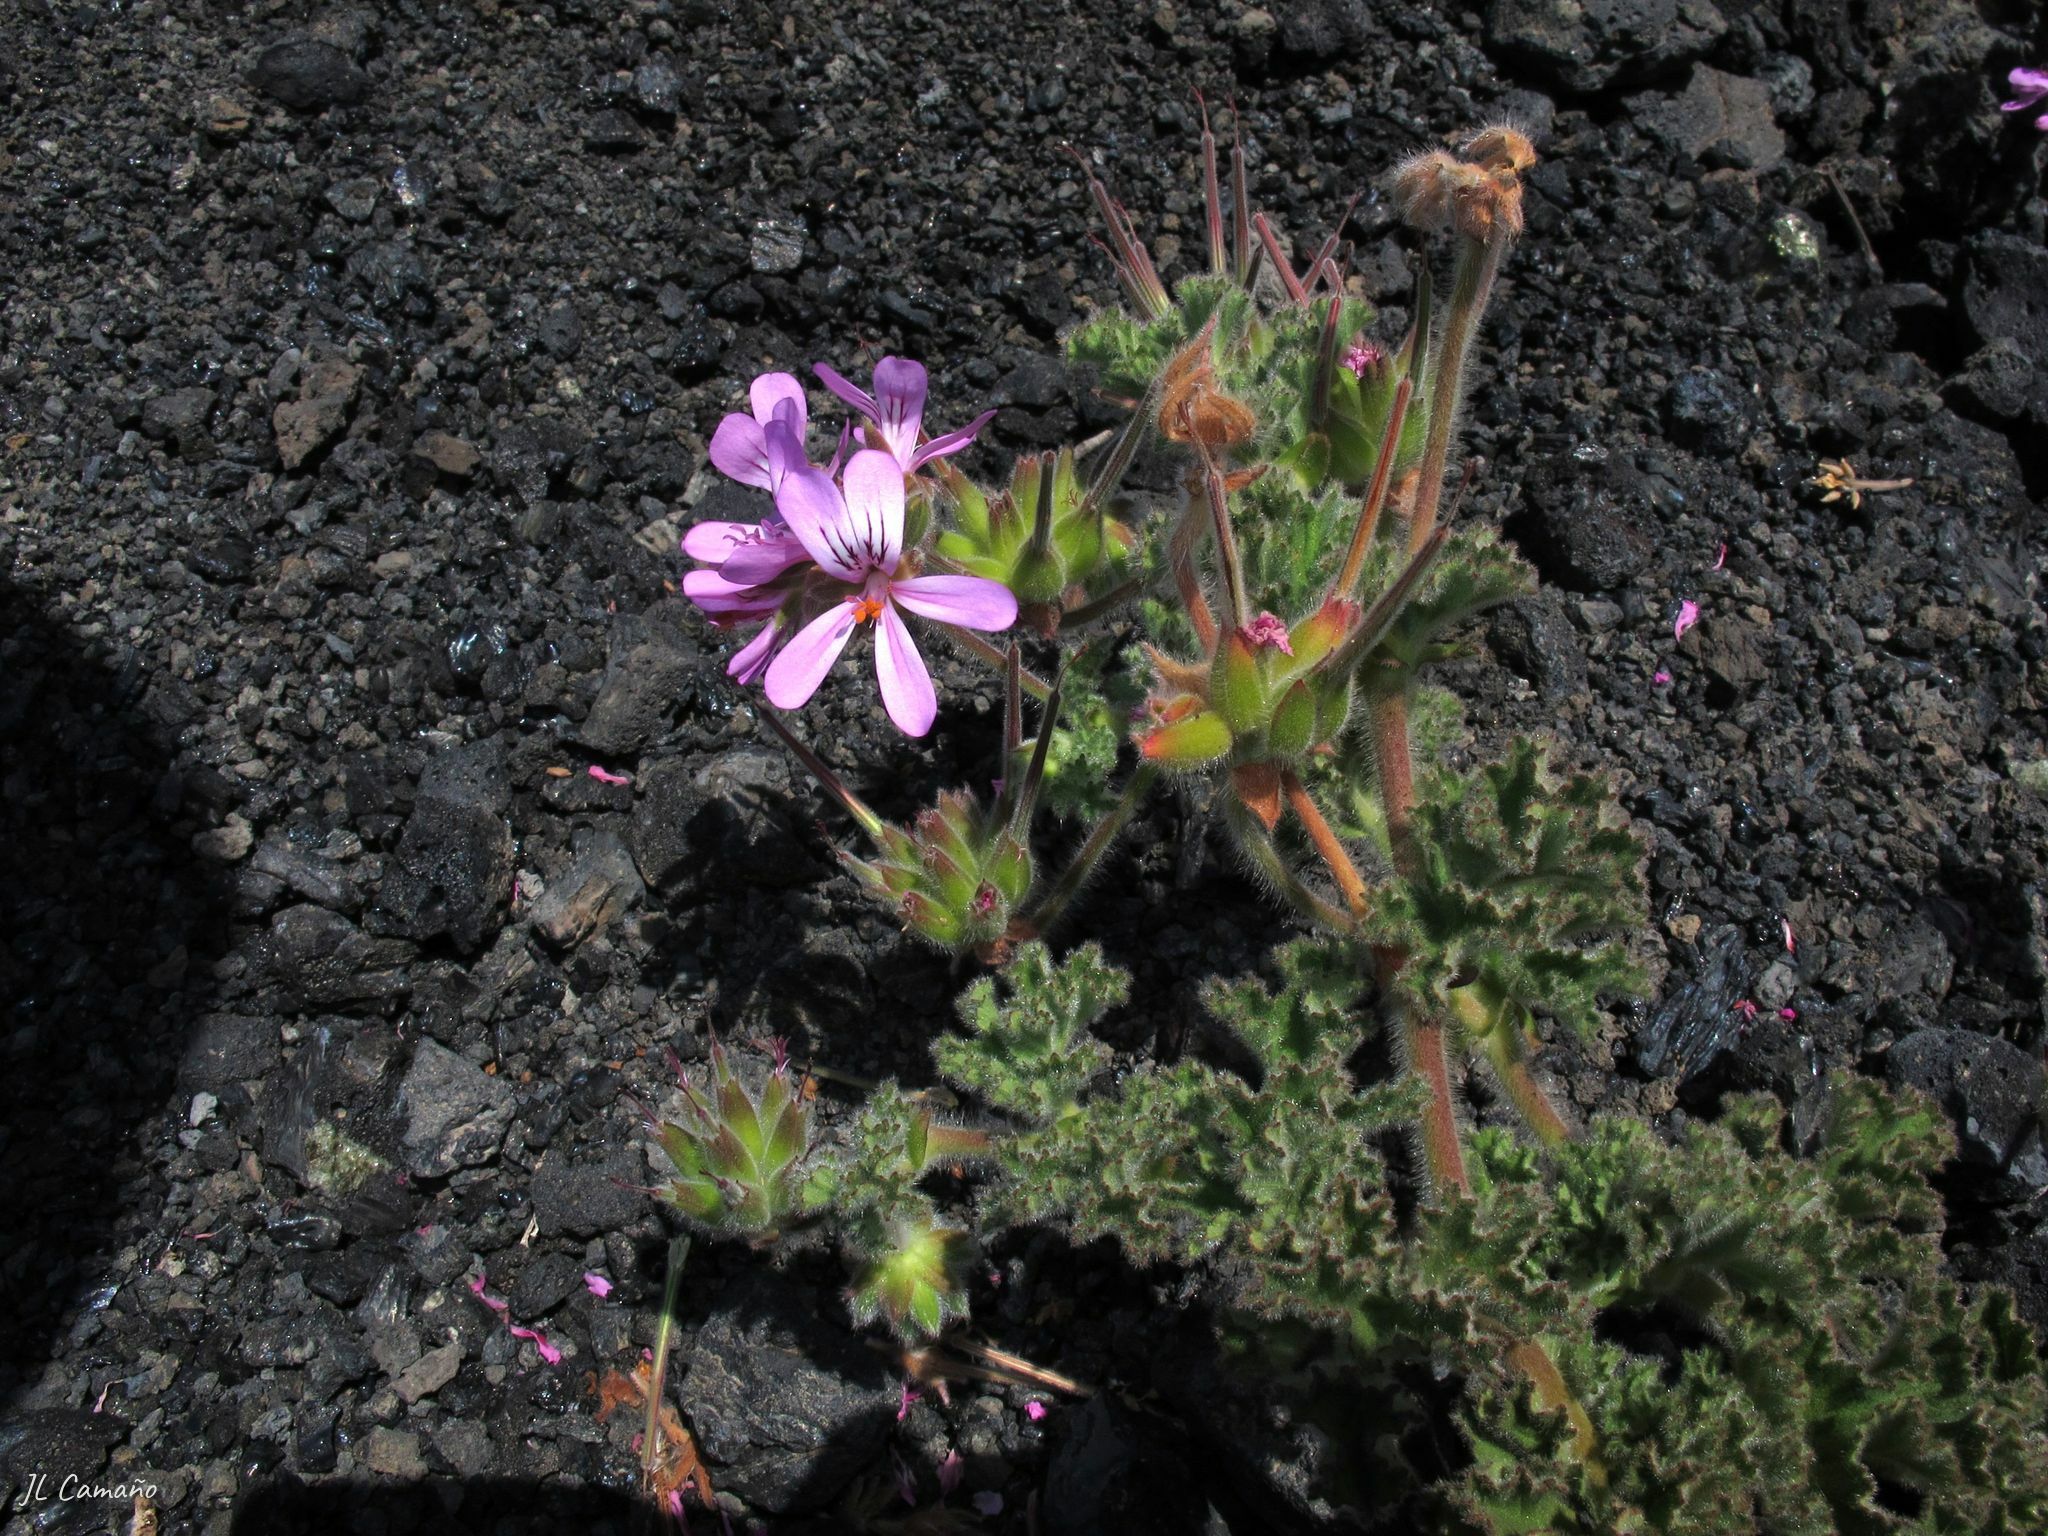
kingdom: Plantae
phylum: Tracheophyta
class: Magnoliopsida
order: Geraniales
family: Geraniaceae
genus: Pelargonium
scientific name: Pelargonium capitatum
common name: Rose scented geranium
